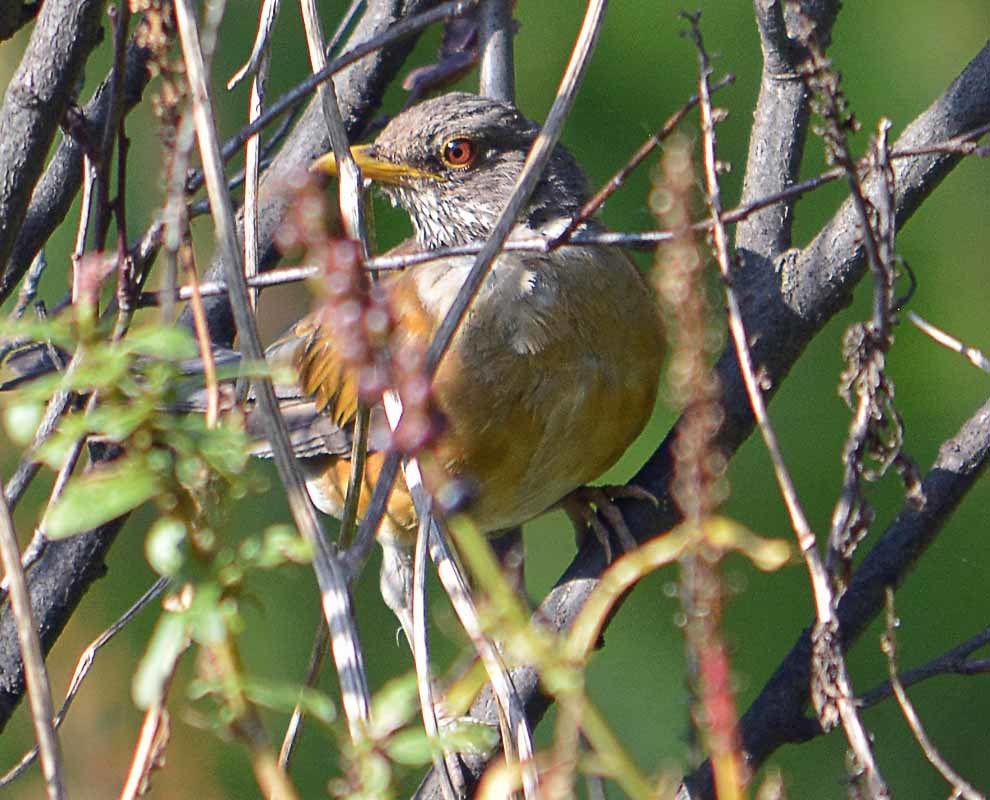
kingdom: Animalia
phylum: Chordata
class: Aves
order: Passeriformes
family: Turdidae
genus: Turdus
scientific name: Turdus rufopalliatus
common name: Rufous-backed robin
